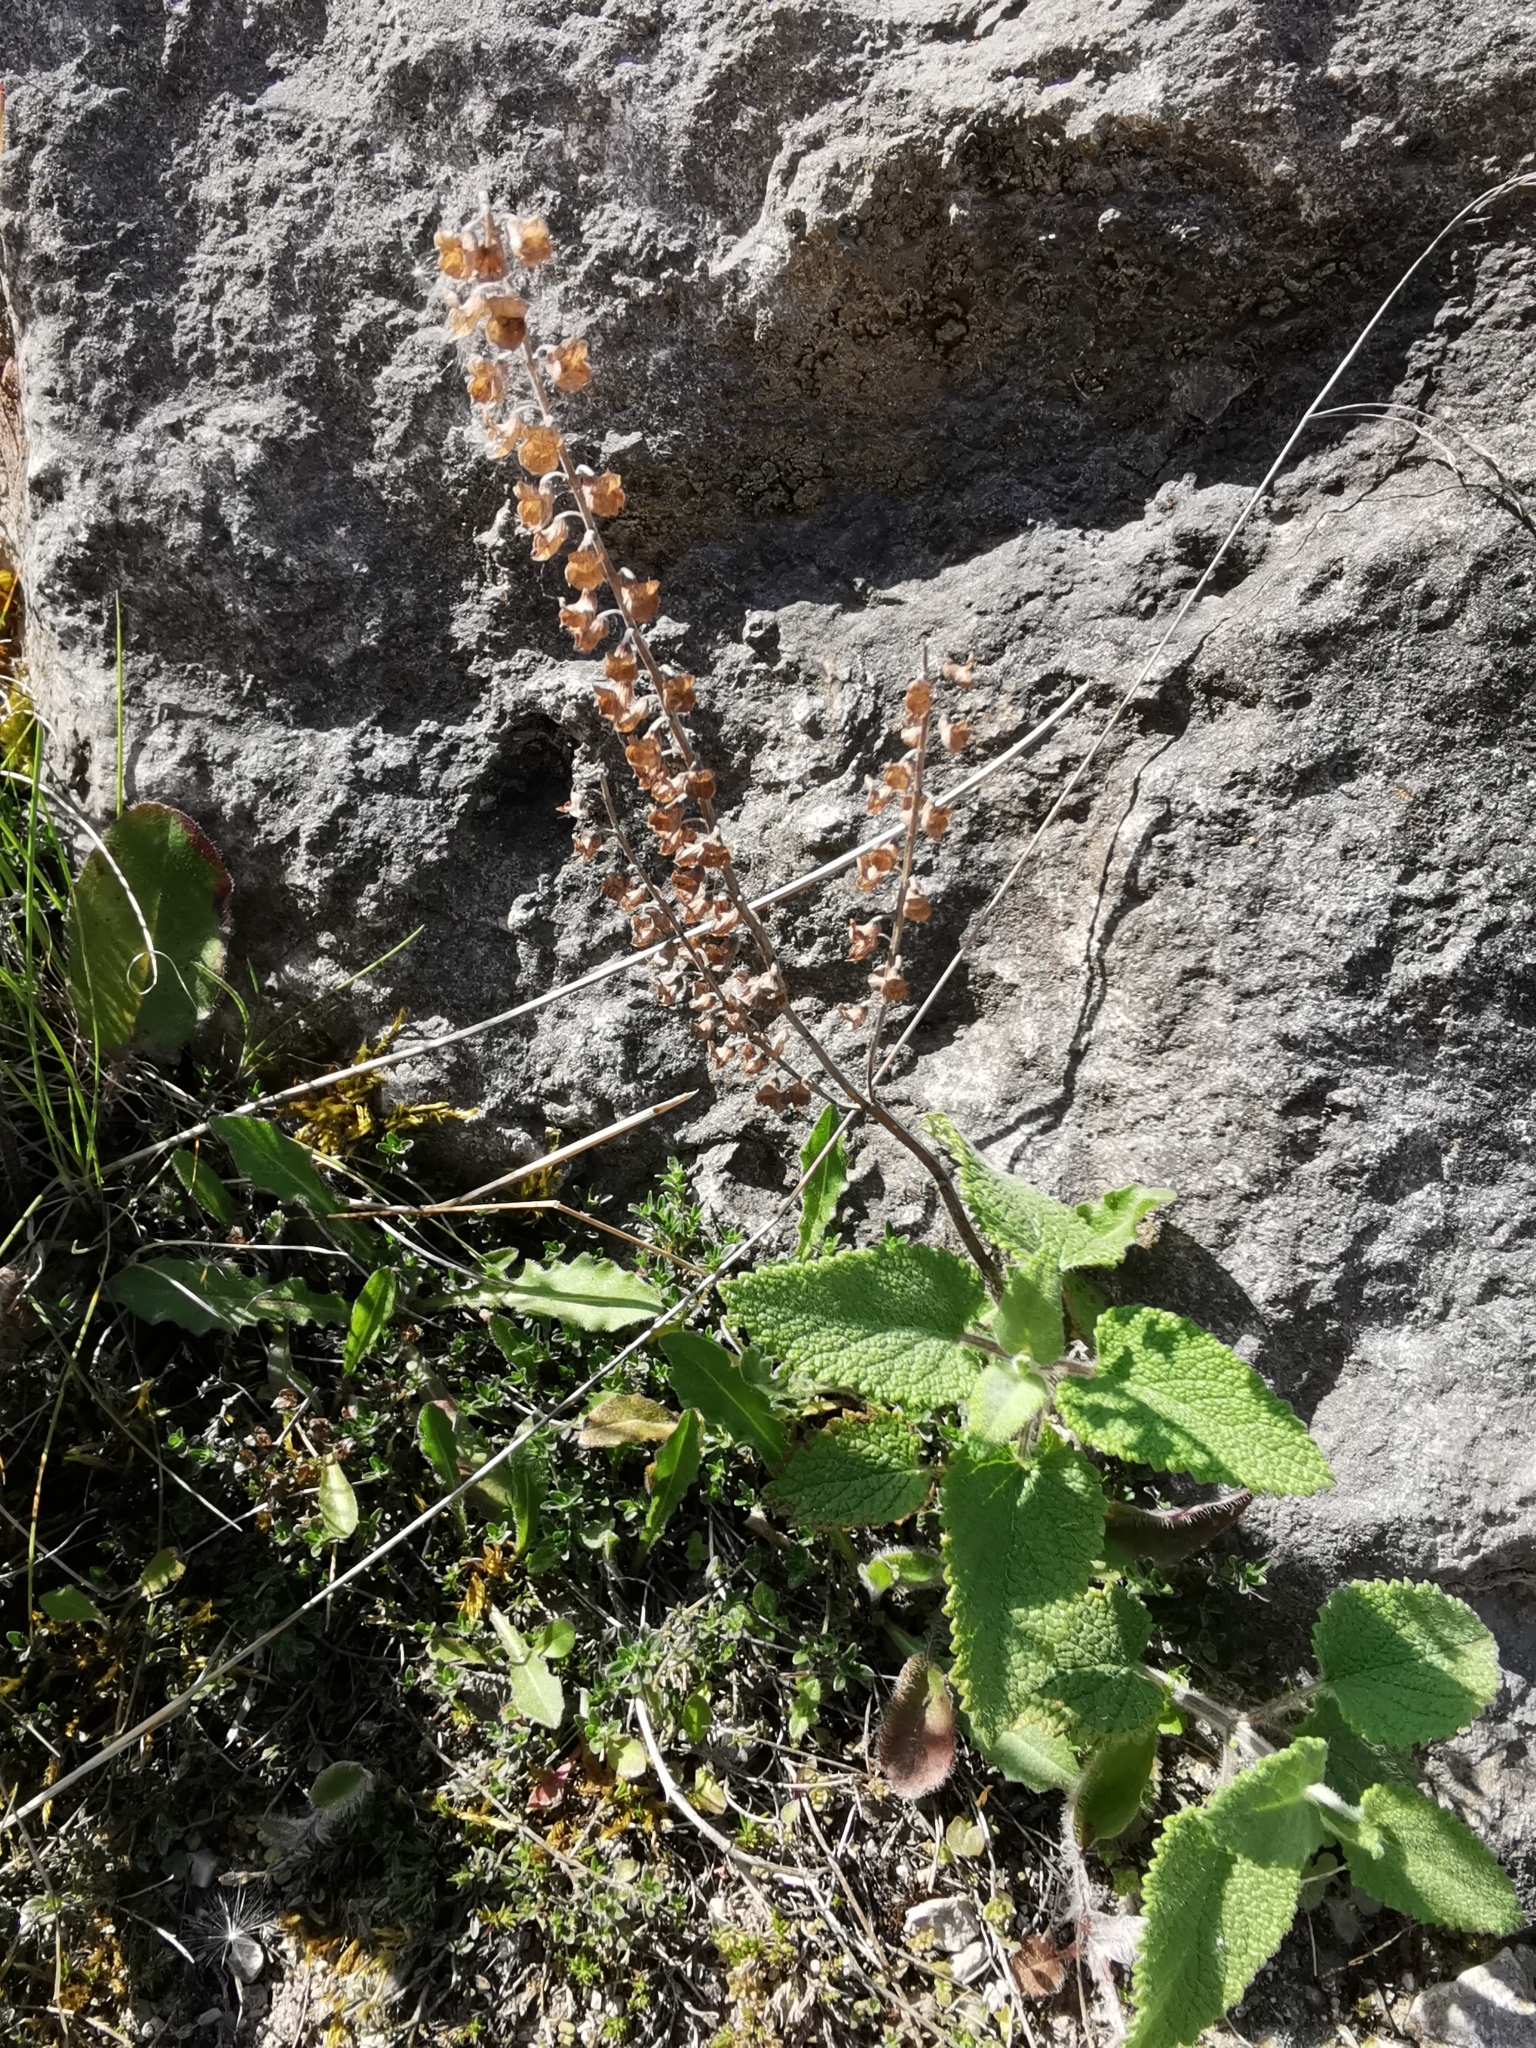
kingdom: Plantae
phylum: Tracheophyta
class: Magnoliopsida
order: Lamiales
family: Lamiaceae
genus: Teucrium
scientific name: Teucrium scorodonia
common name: Woodland germander
